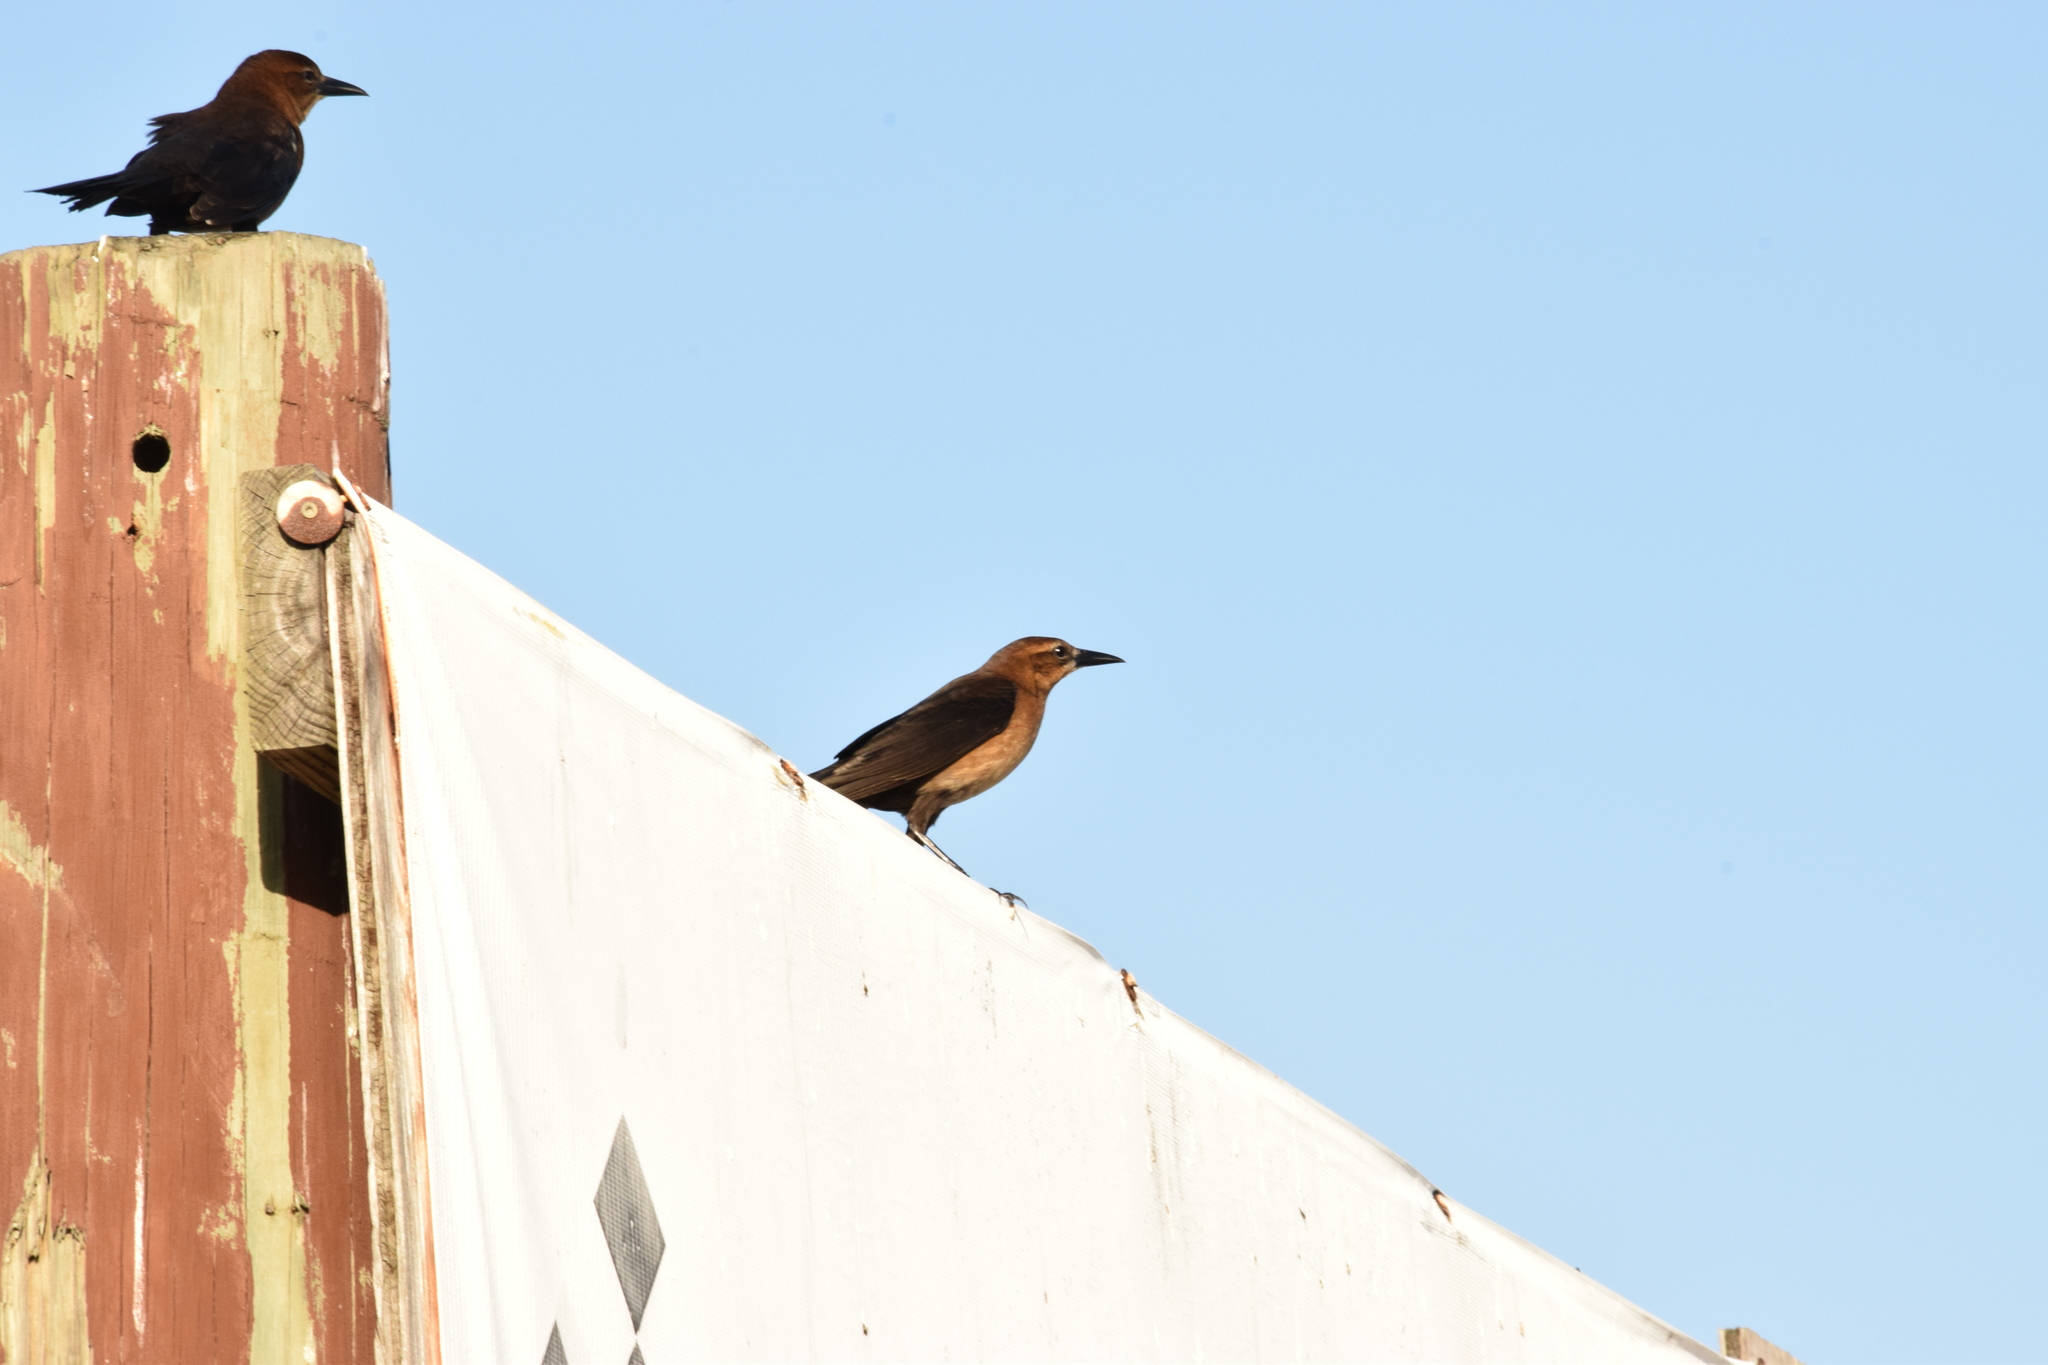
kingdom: Animalia
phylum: Chordata
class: Aves
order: Passeriformes
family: Icteridae
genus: Quiscalus
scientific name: Quiscalus major
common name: Boat-tailed grackle
